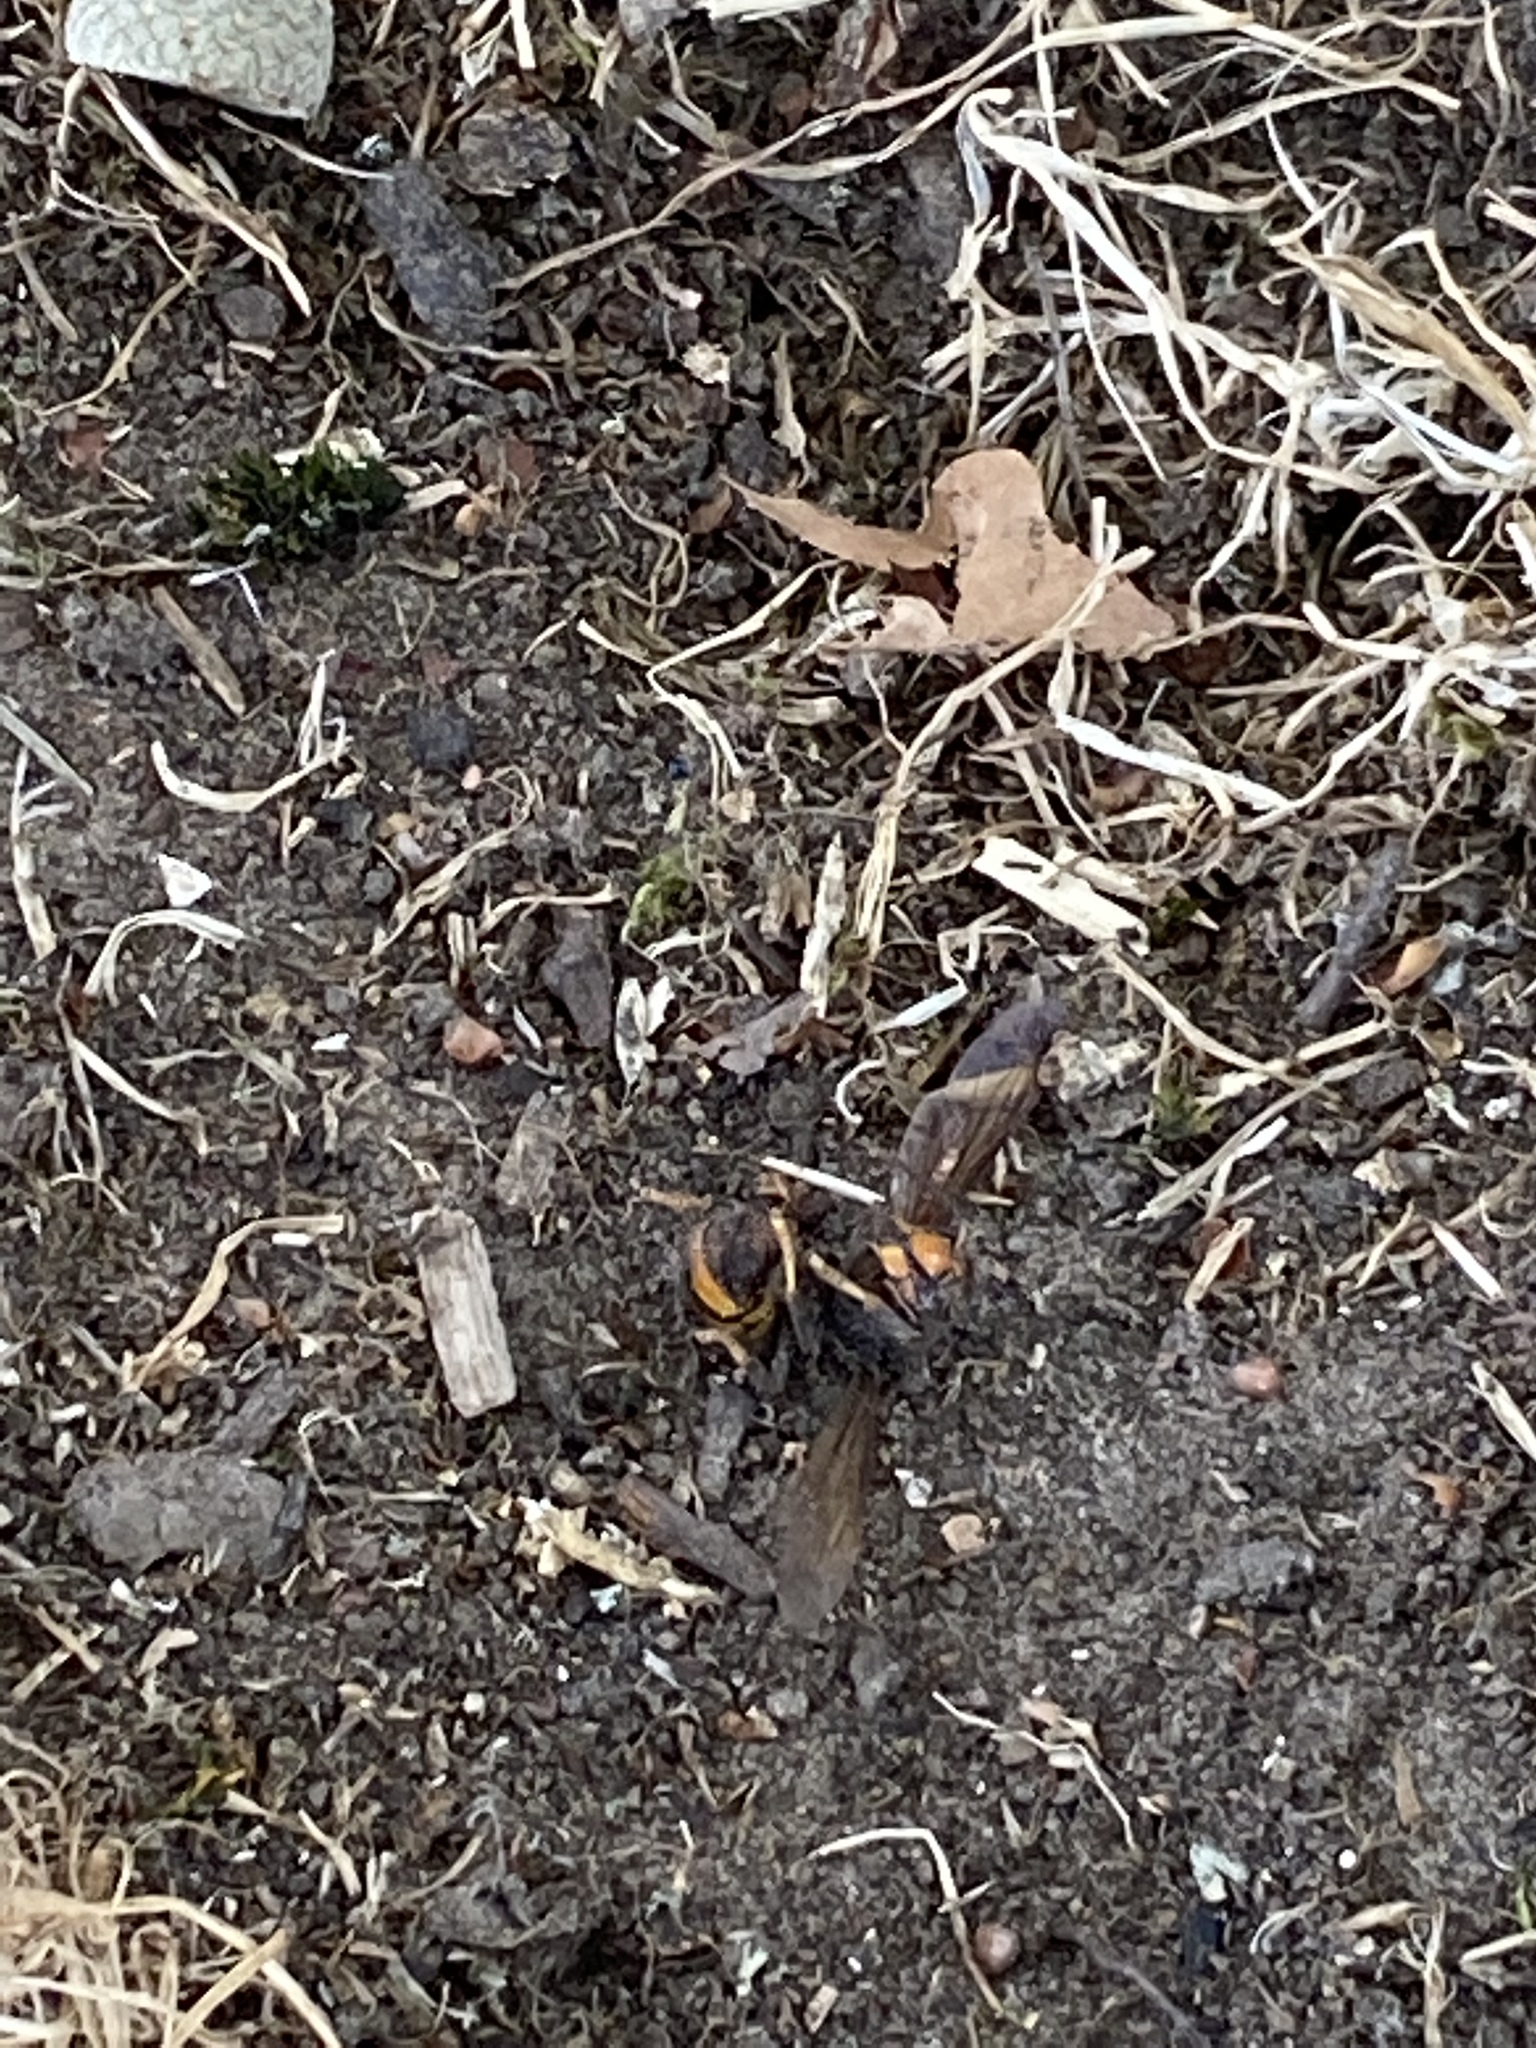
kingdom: Animalia
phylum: Arthropoda
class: Insecta
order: Hymenoptera
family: Vespidae
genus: Vespa
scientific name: Vespa velutina
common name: Asian hornet
